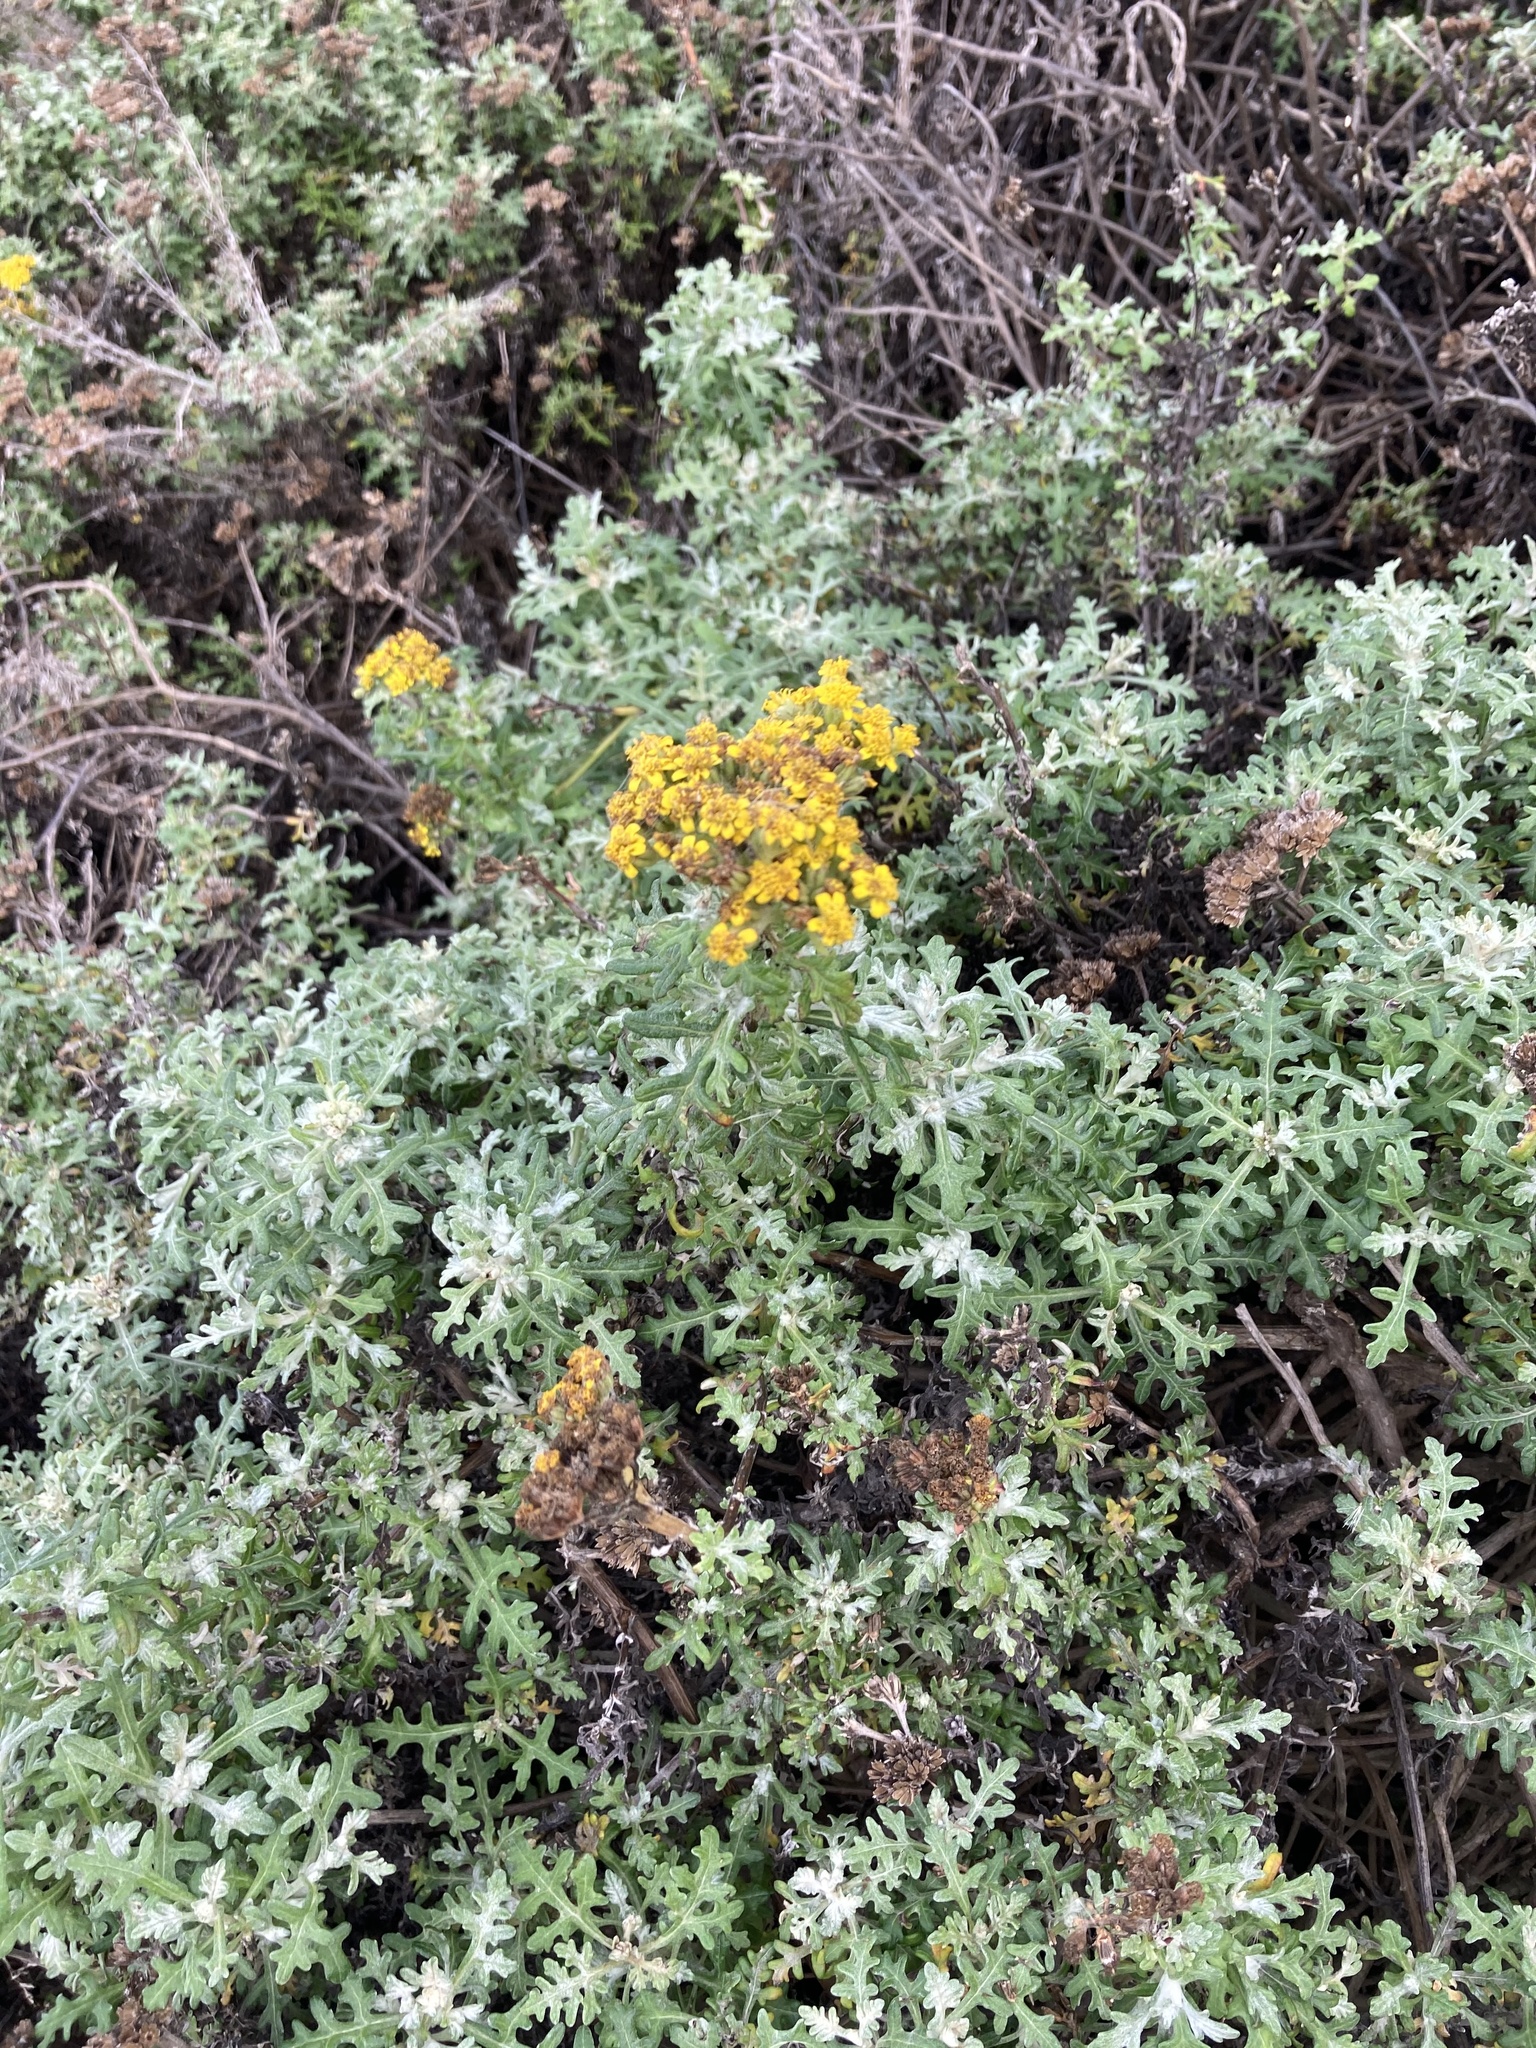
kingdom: Plantae
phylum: Tracheophyta
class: Magnoliopsida
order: Asterales
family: Asteraceae
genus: Eriophyllum
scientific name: Eriophyllum staechadifolium
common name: Lizardtail
